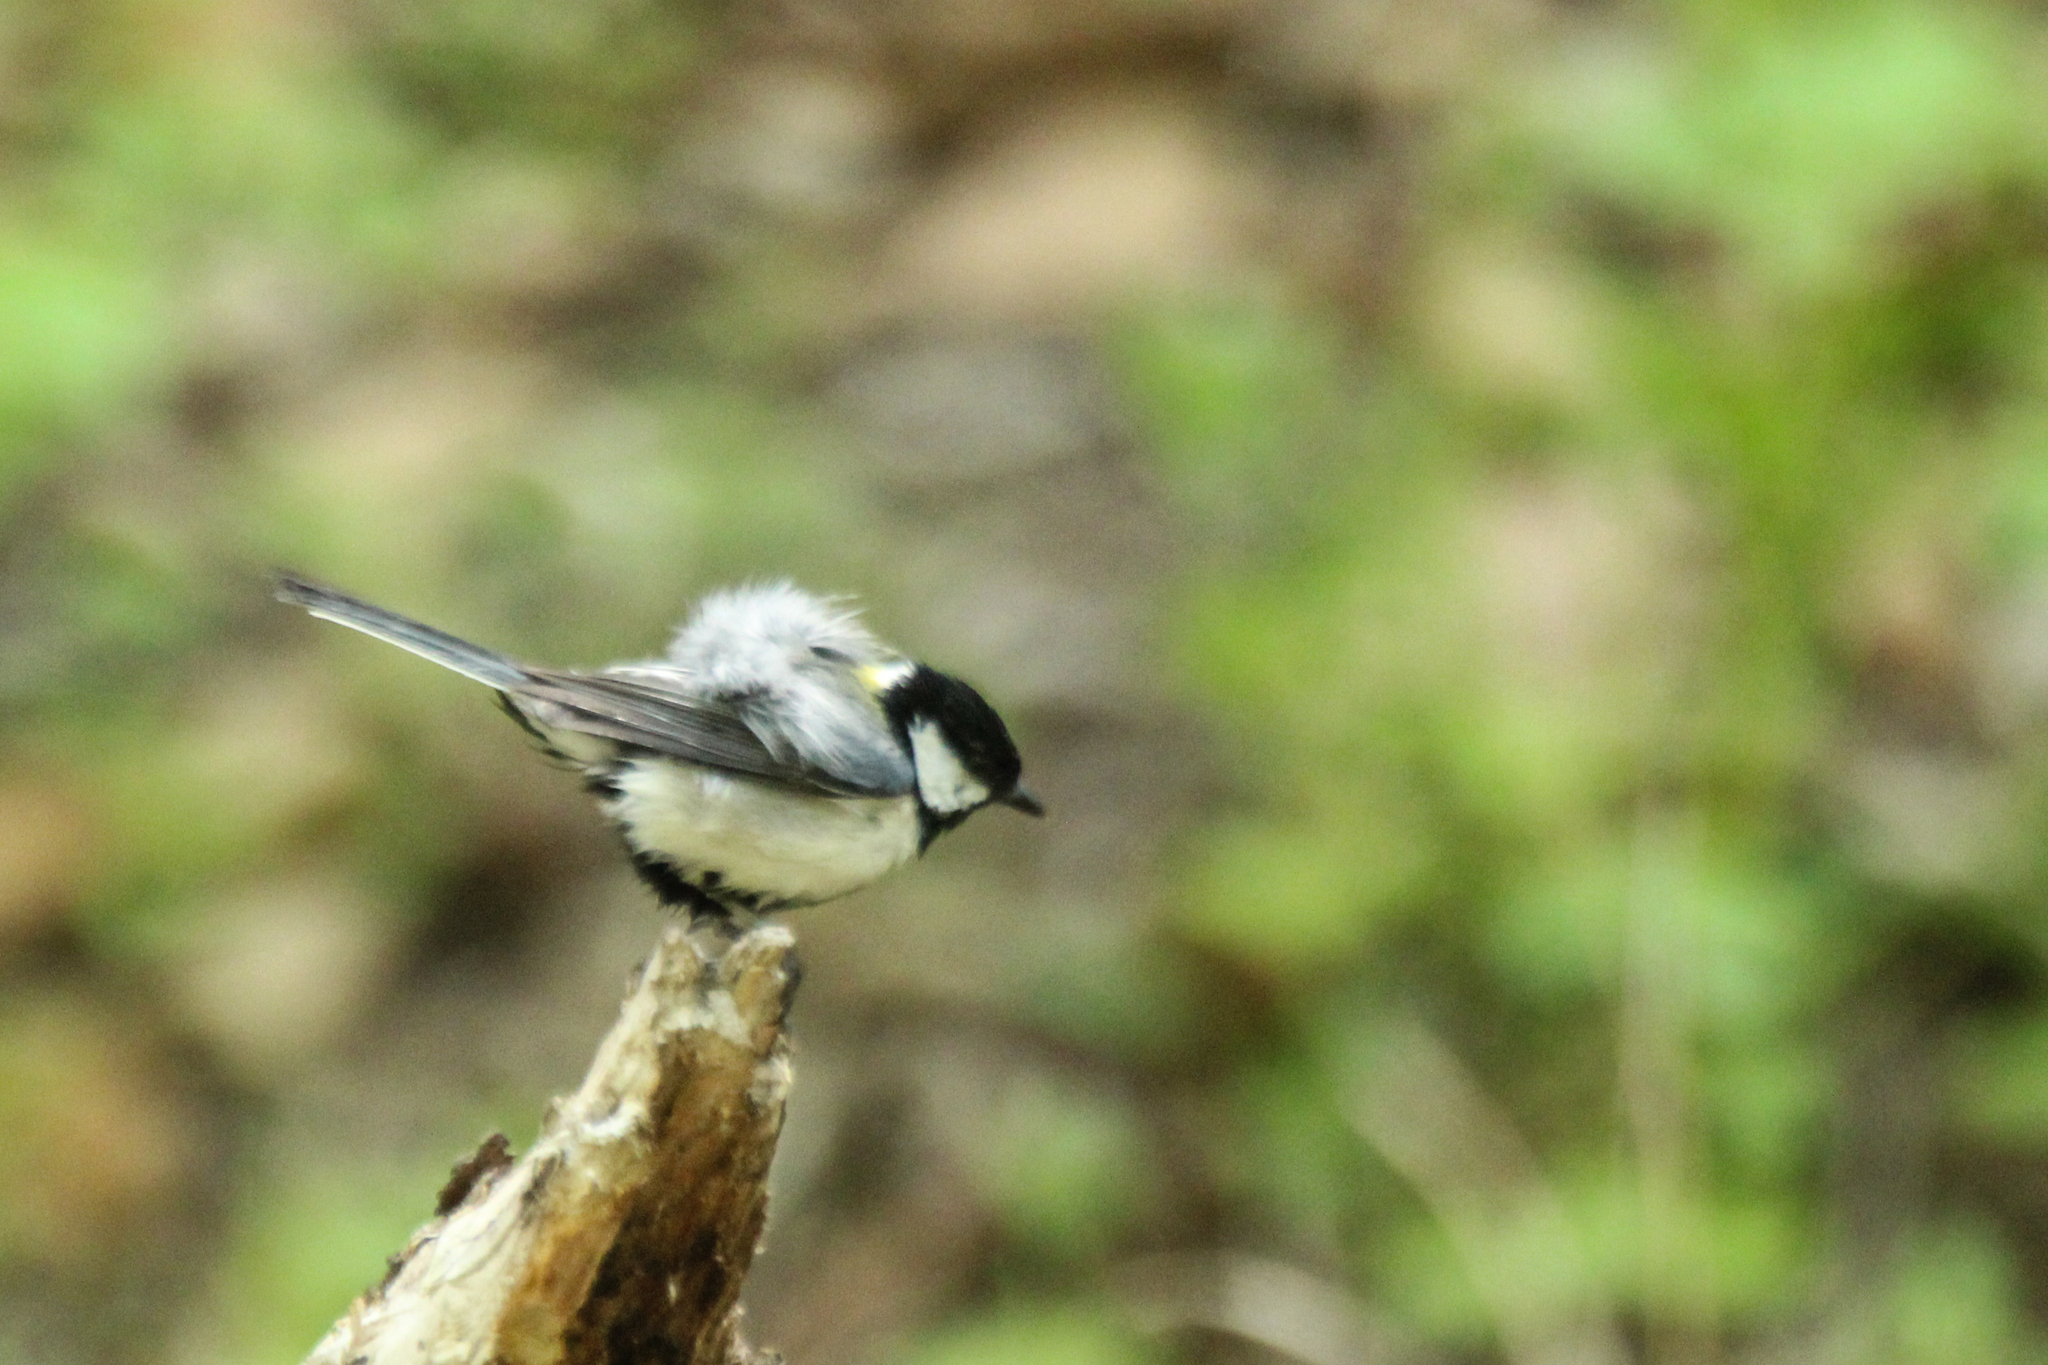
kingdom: Animalia
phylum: Chordata
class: Aves
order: Passeriformes
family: Paridae
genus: Parus
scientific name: Parus minor
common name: Japanese tit
